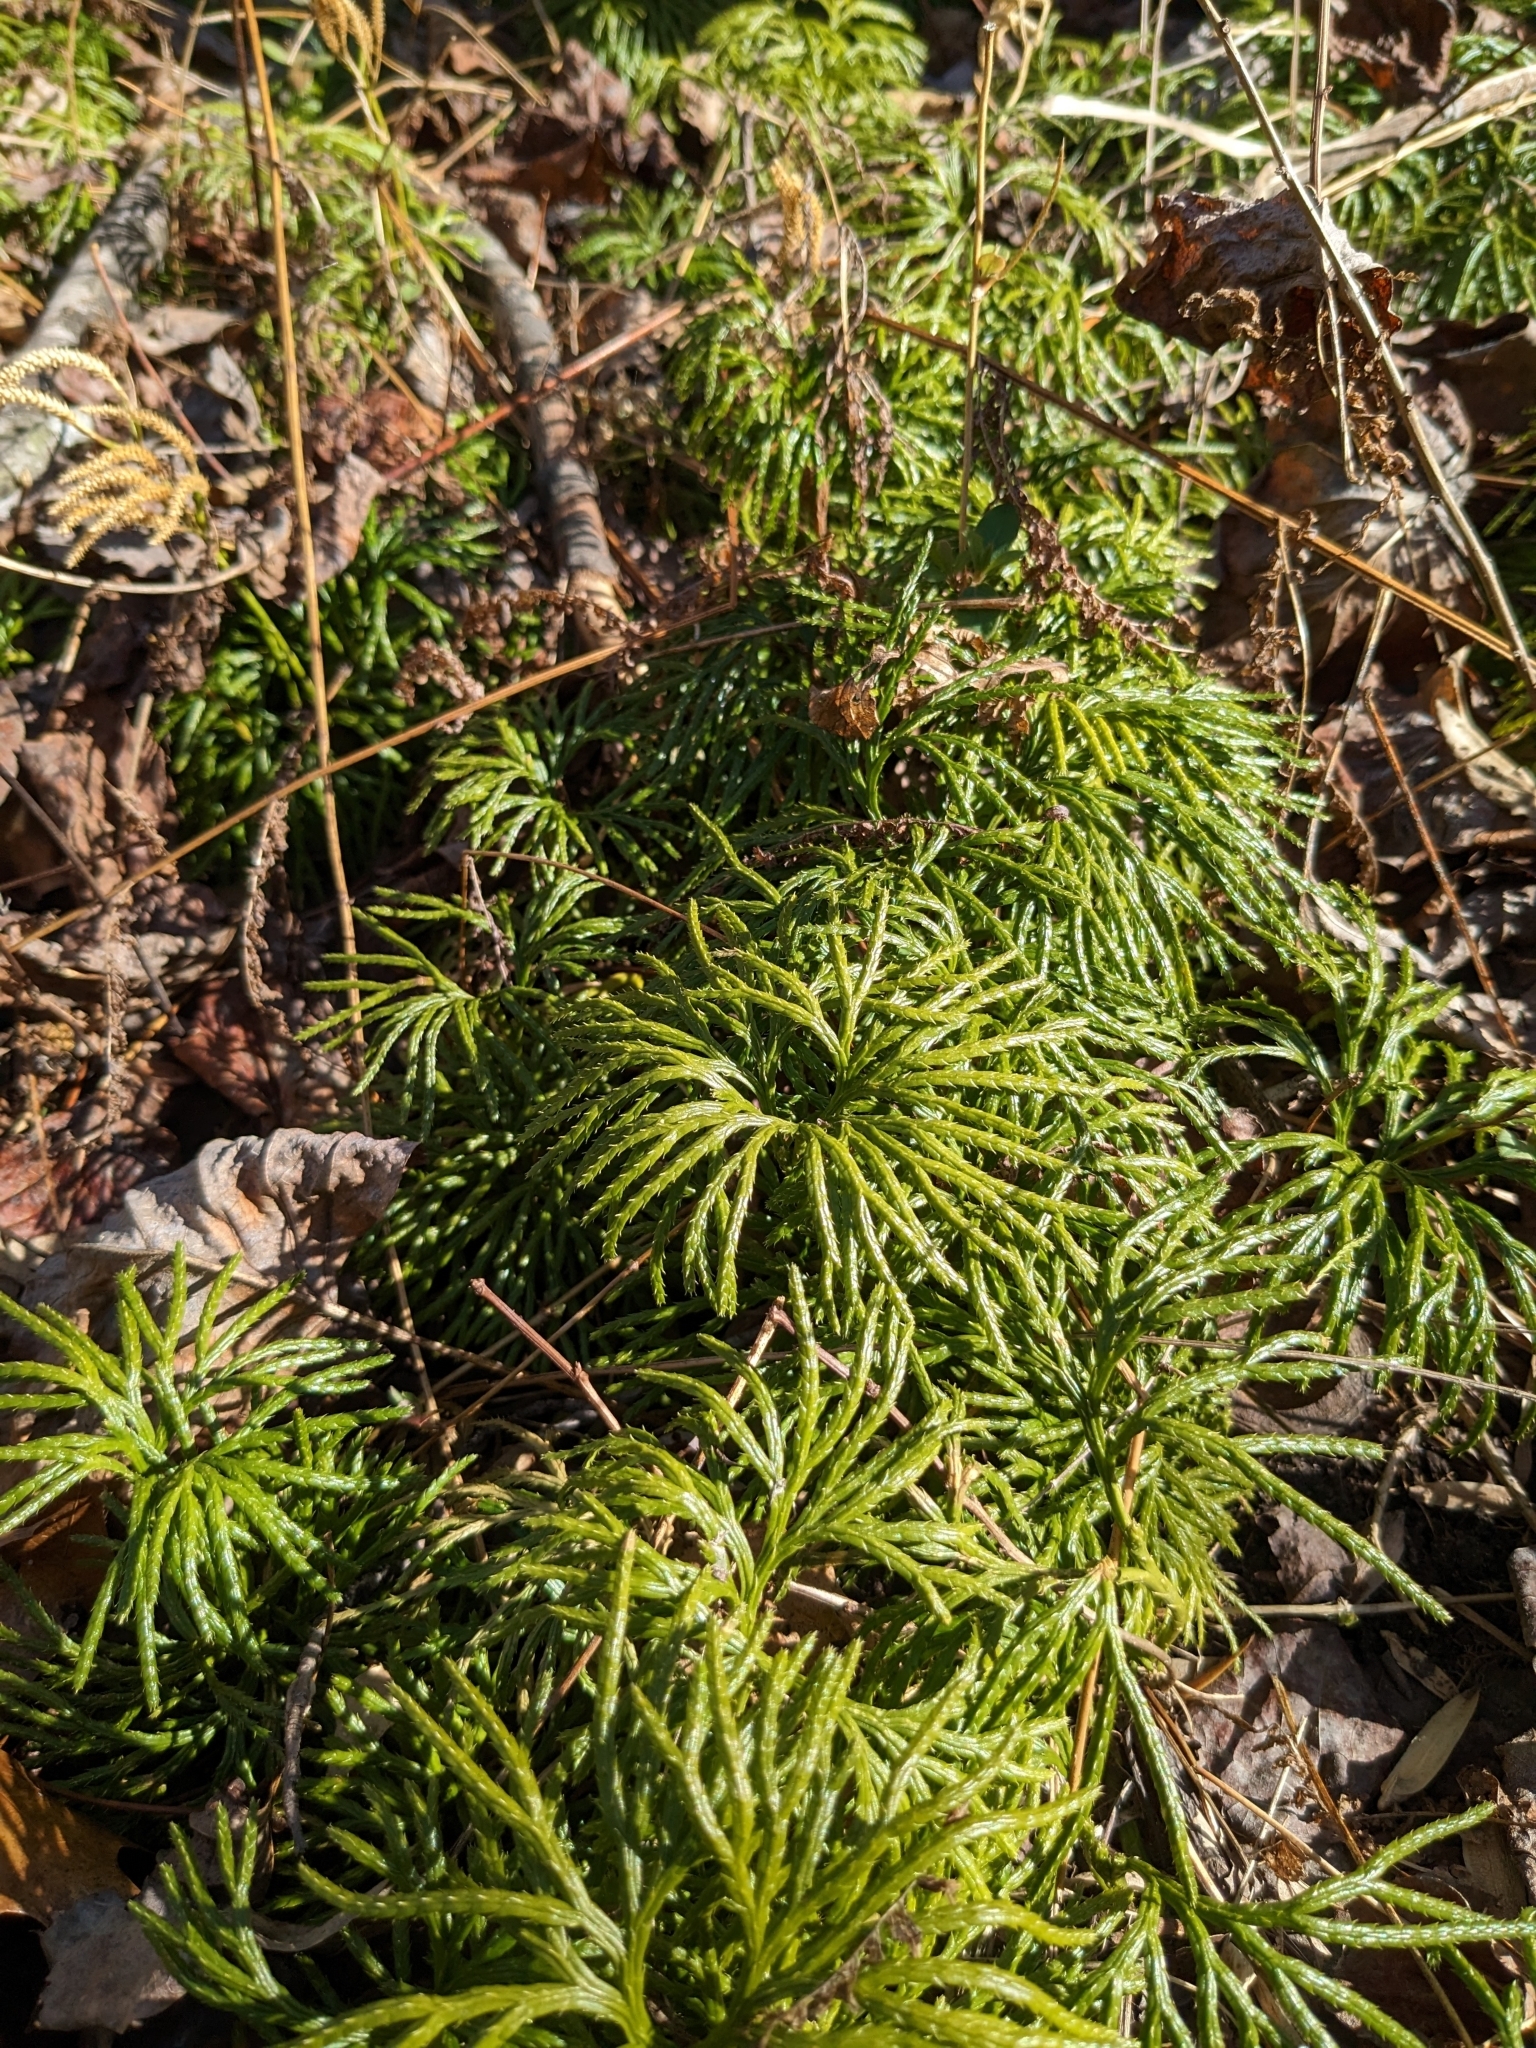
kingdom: Plantae
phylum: Tracheophyta
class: Lycopodiopsida
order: Lycopodiales
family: Lycopodiaceae
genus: Diphasiastrum
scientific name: Diphasiastrum digitatum
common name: Southern running-pine
